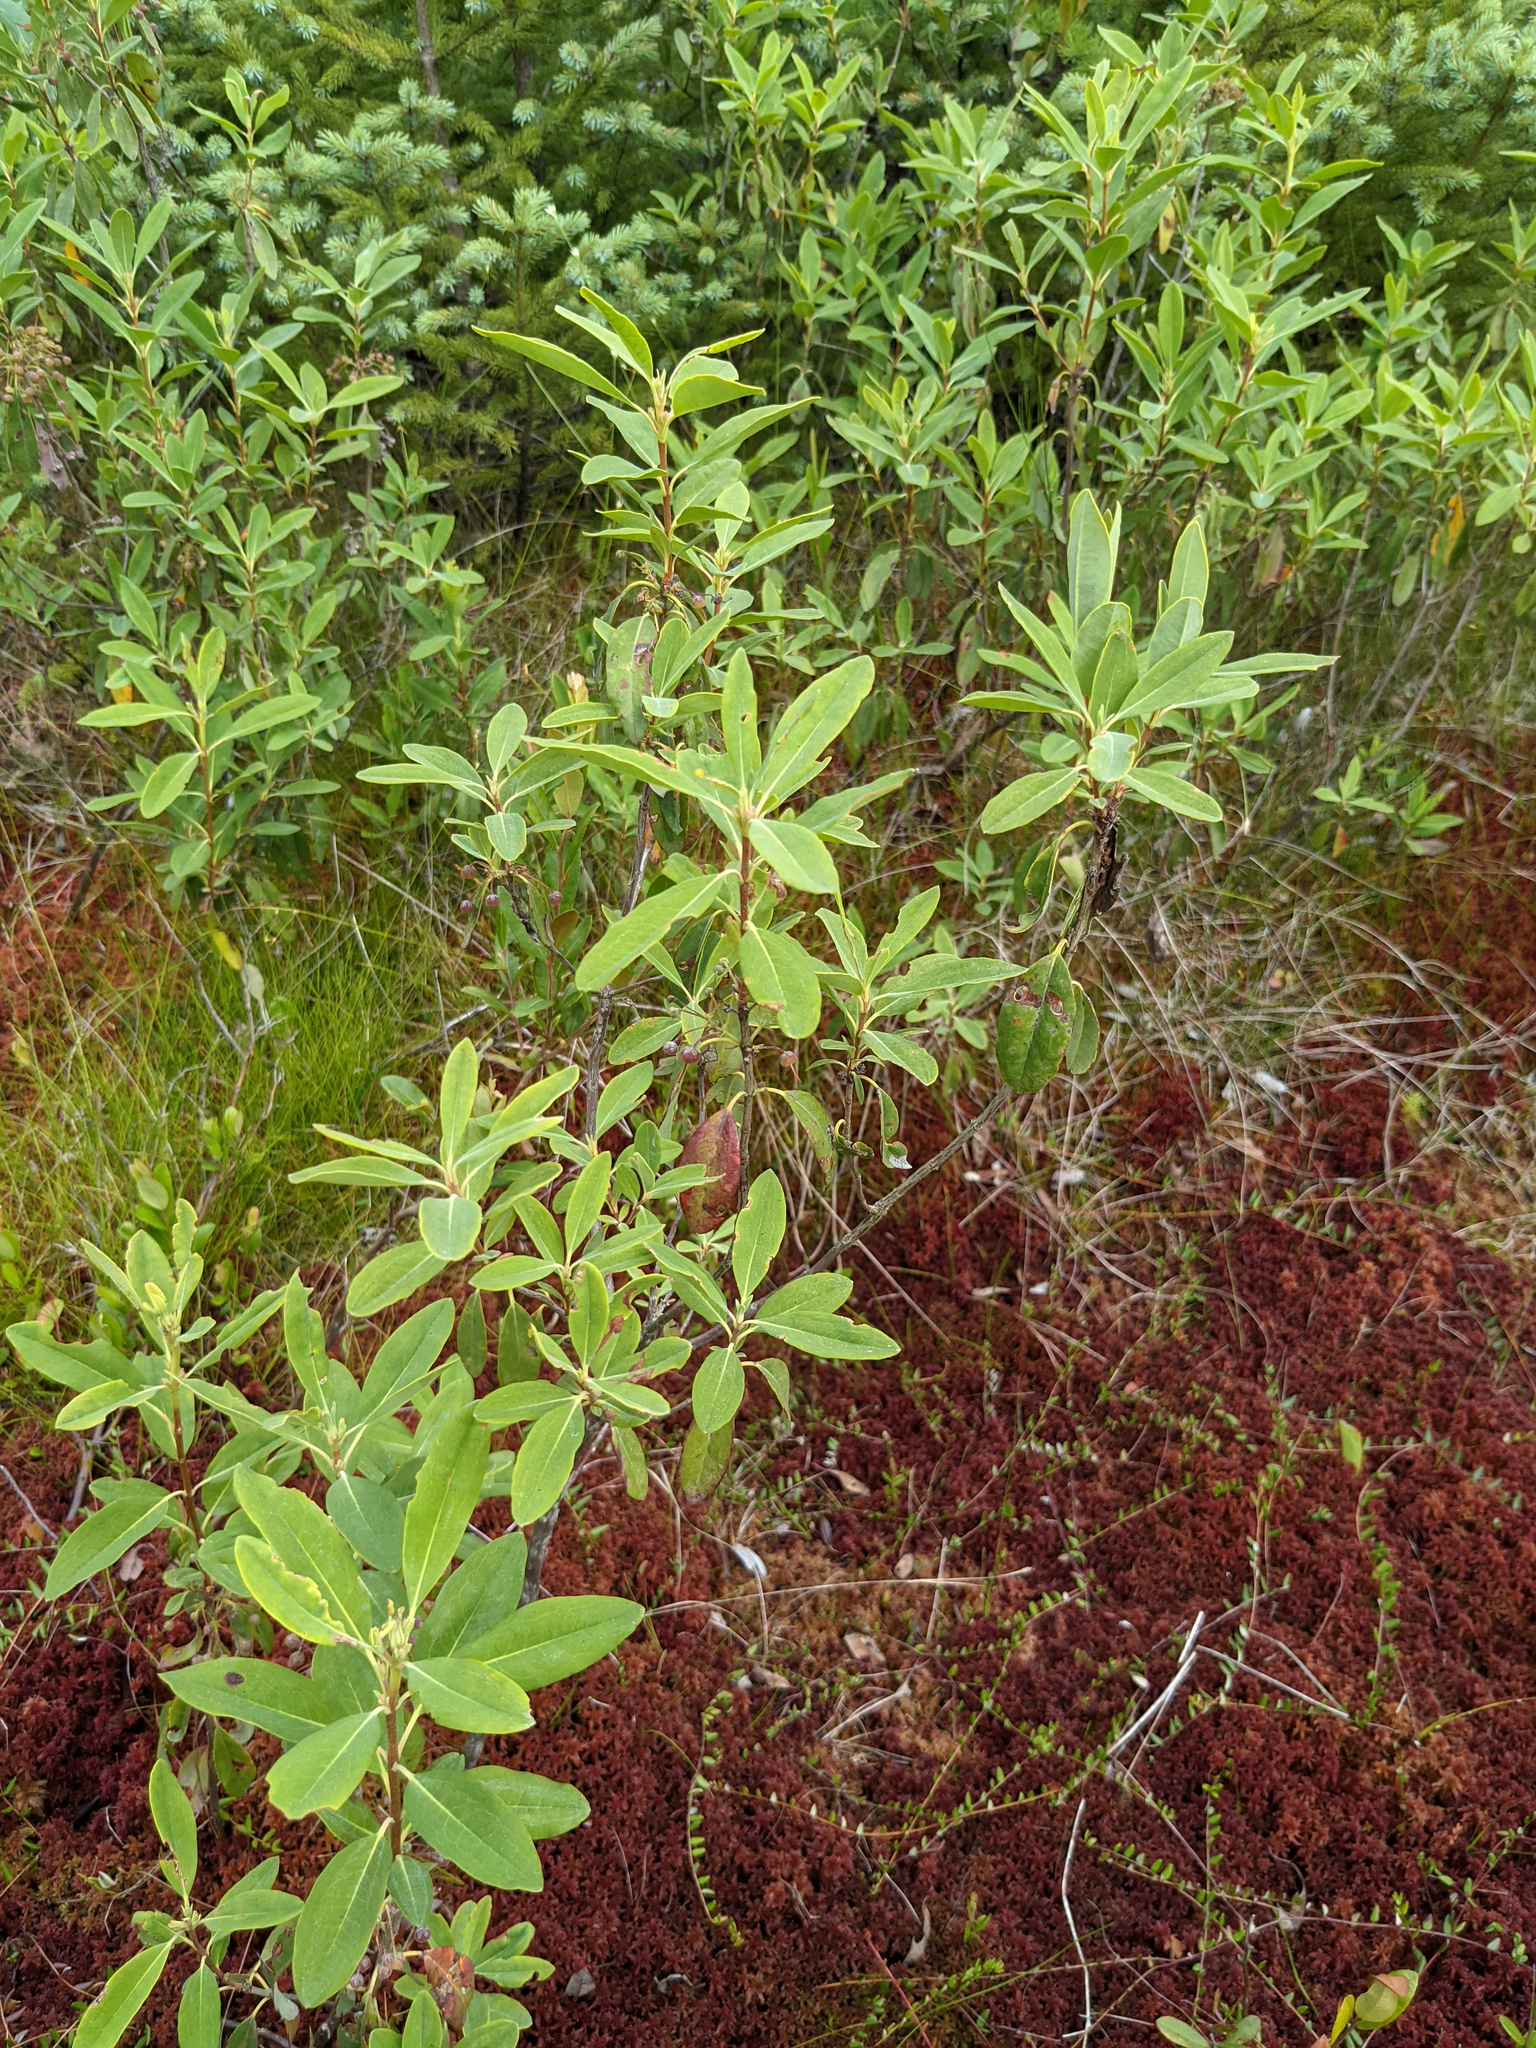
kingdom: Plantae
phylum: Tracheophyta
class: Magnoliopsida
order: Ericales
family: Ericaceae
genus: Kalmia
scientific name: Kalmia angustifolia
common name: Sheep-laurel
